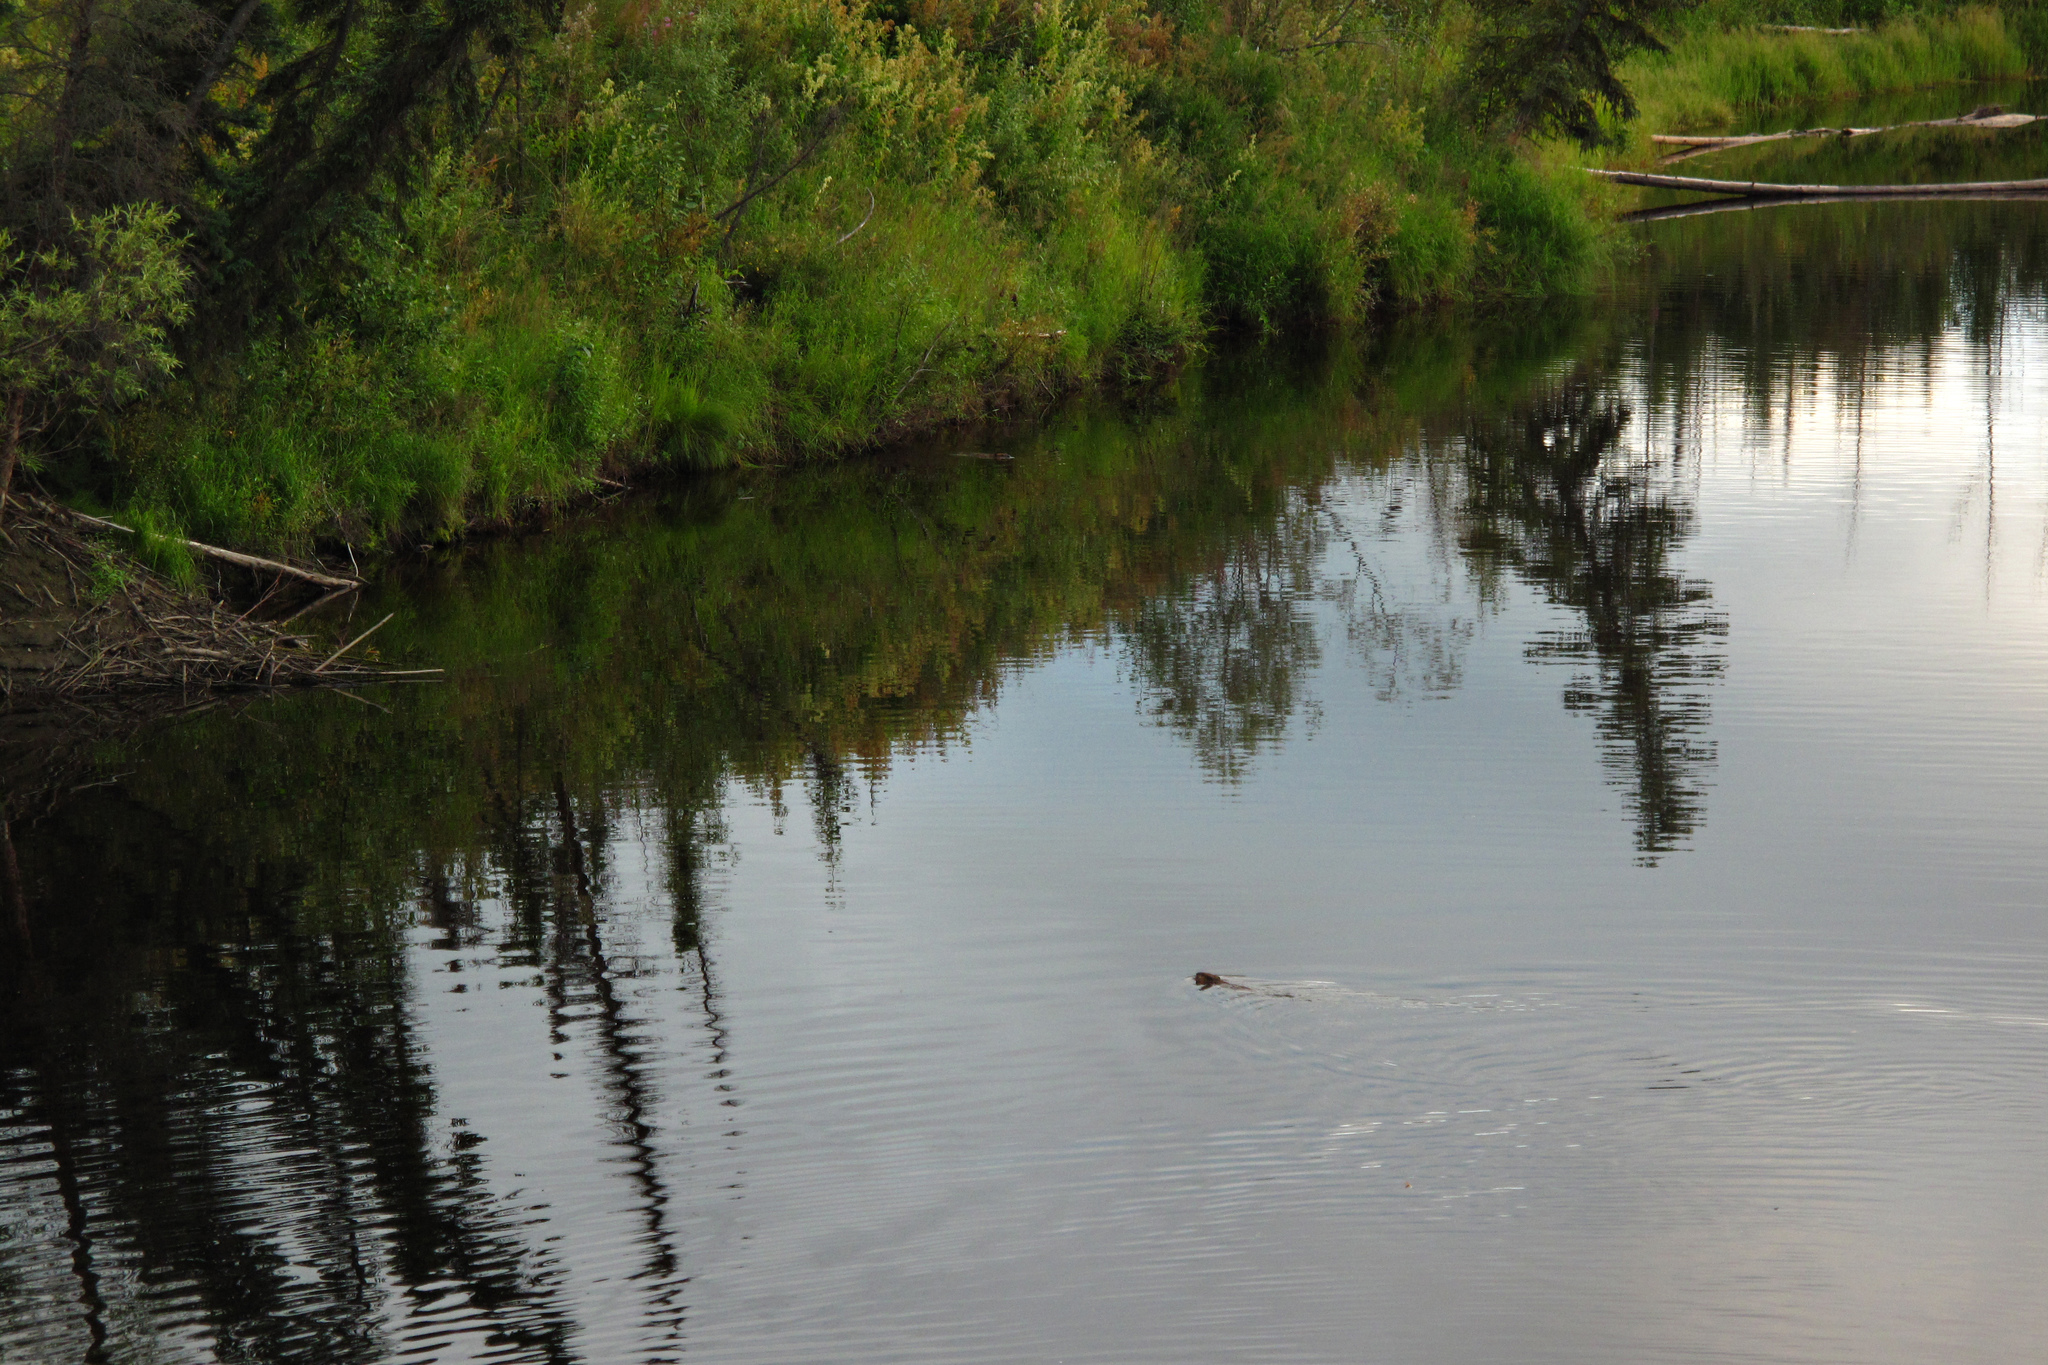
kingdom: Animalia
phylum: Chordata
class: Mammalia
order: Rodentia
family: Castoridae
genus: Castor
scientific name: Castor canadensis
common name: American beaver
